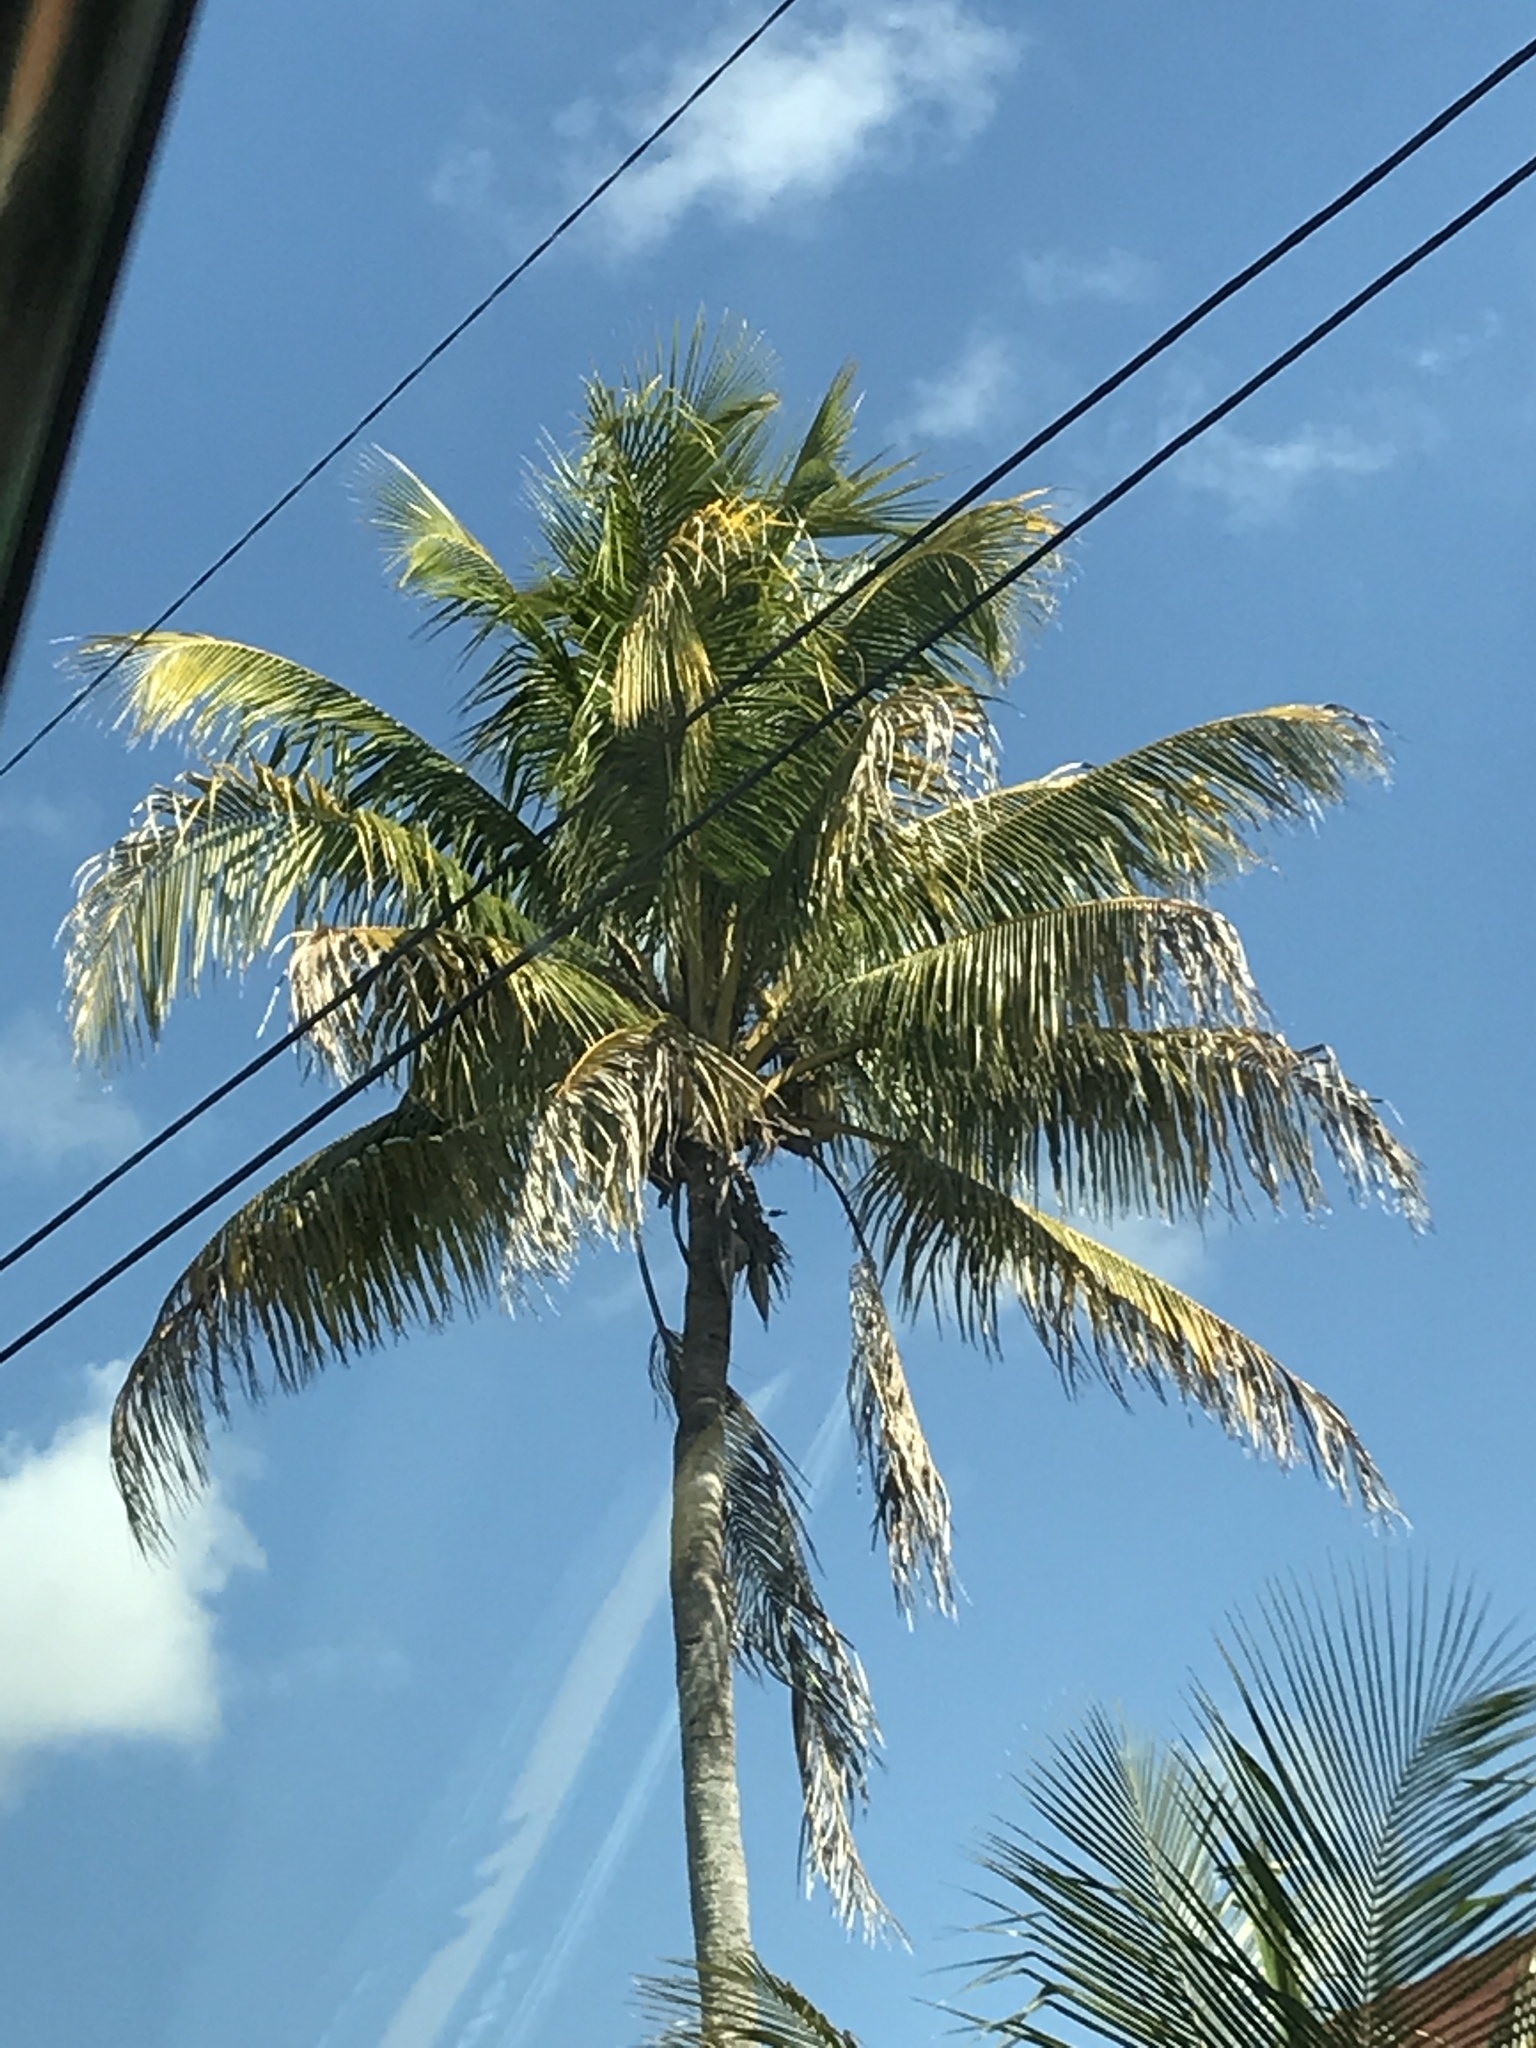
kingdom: Plantae
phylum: Tracheophyta
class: Liliopsida
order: Arecales
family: Arecaceae
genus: Cocos
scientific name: Cocos nucifera
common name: Coconut palm
